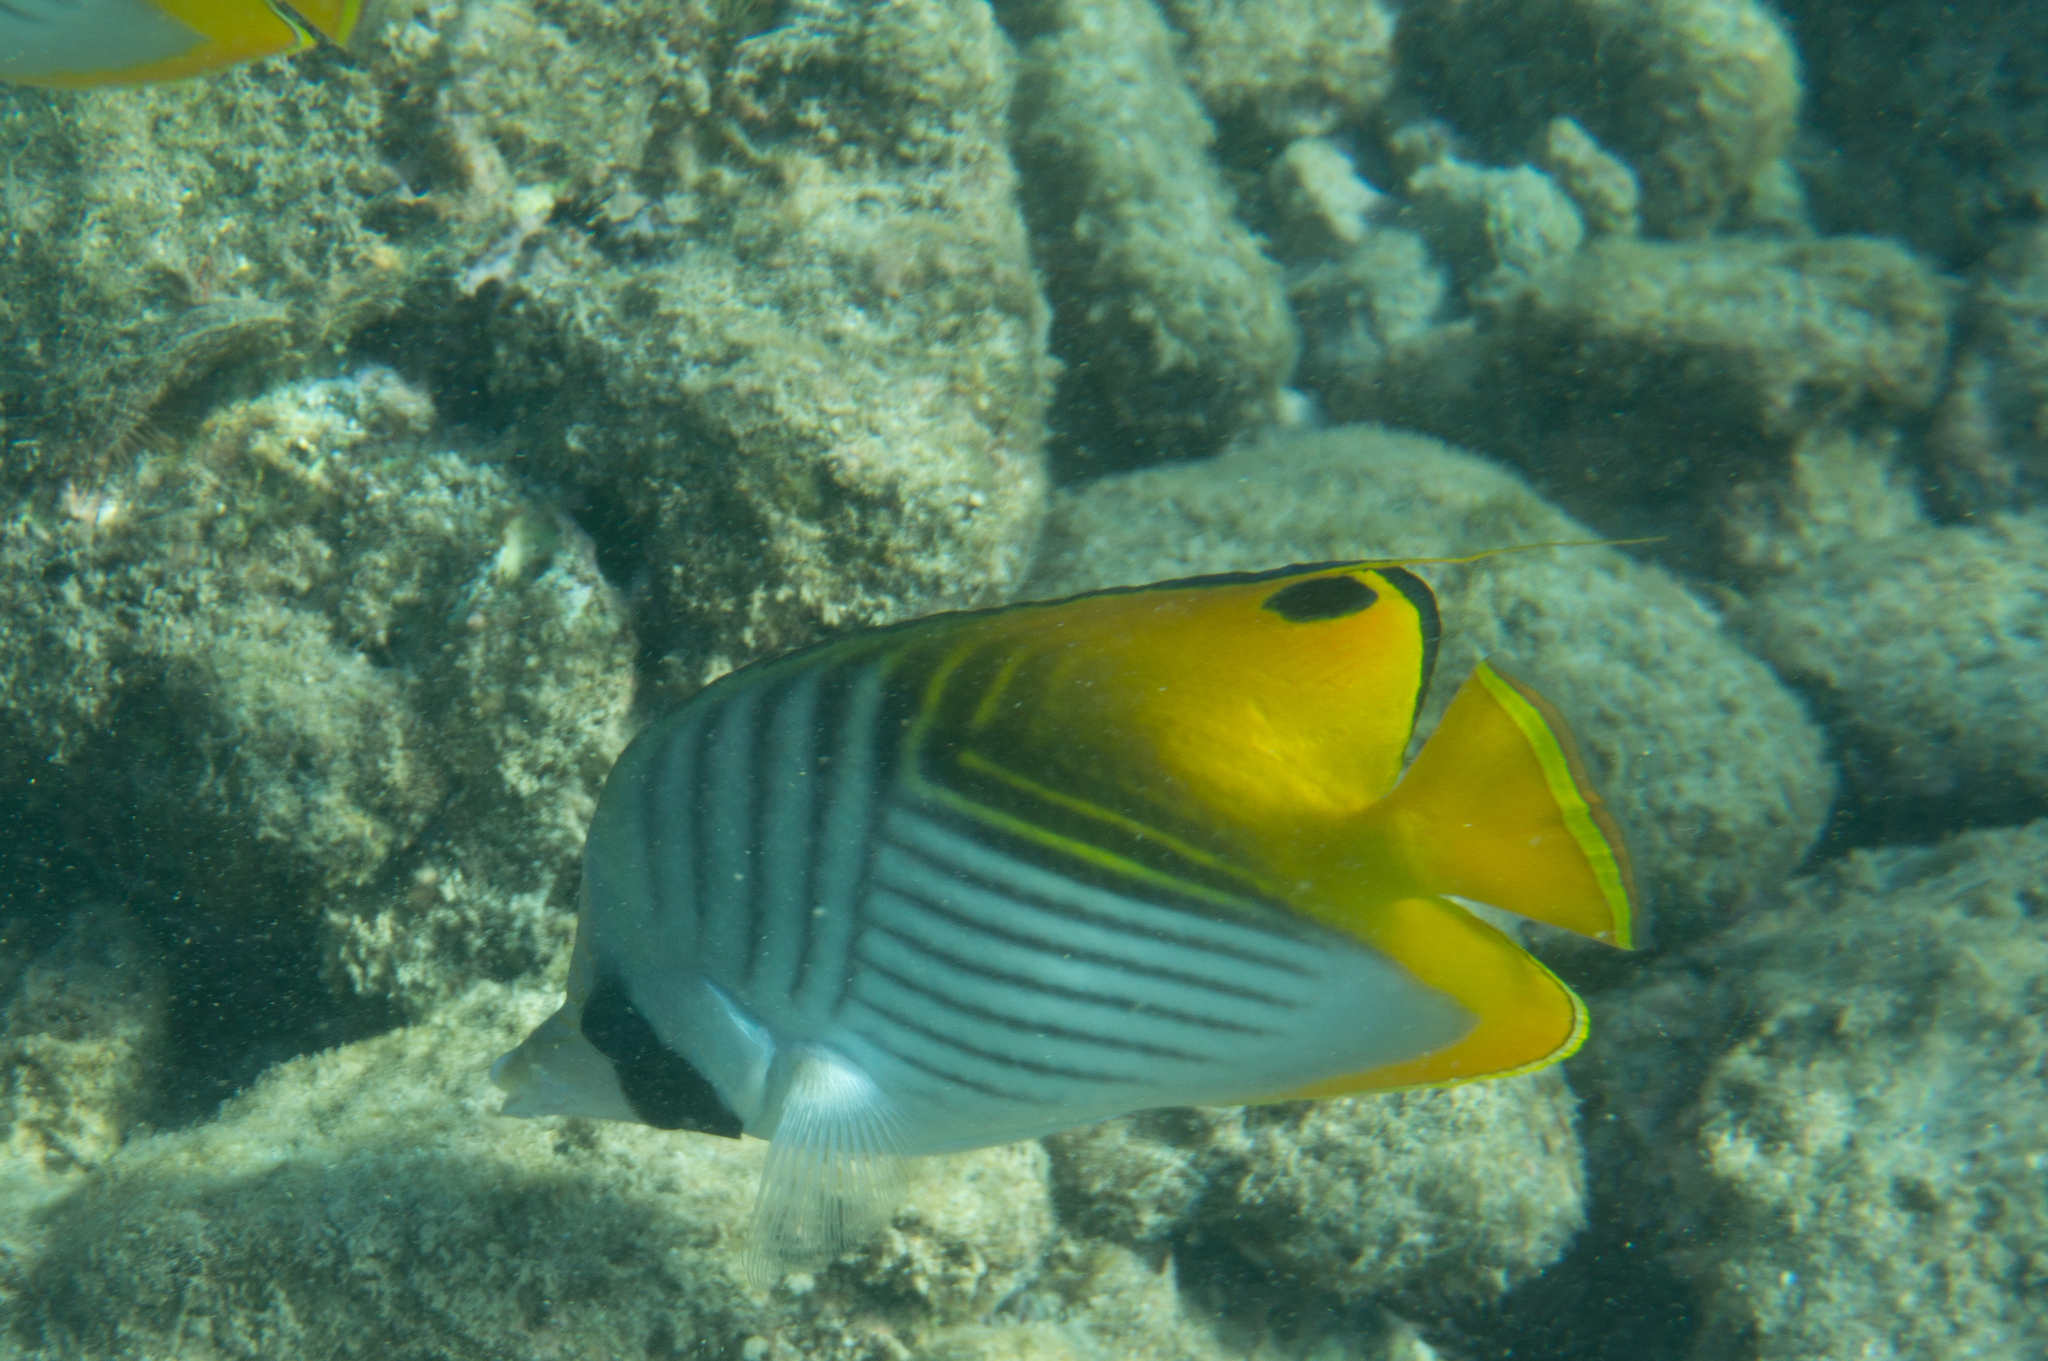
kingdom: Animalia
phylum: Chordata
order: Perciformes
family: Chaetodontidae
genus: Chaetodon
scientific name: Chaetodon auriga
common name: Threadfin butterflyfish
